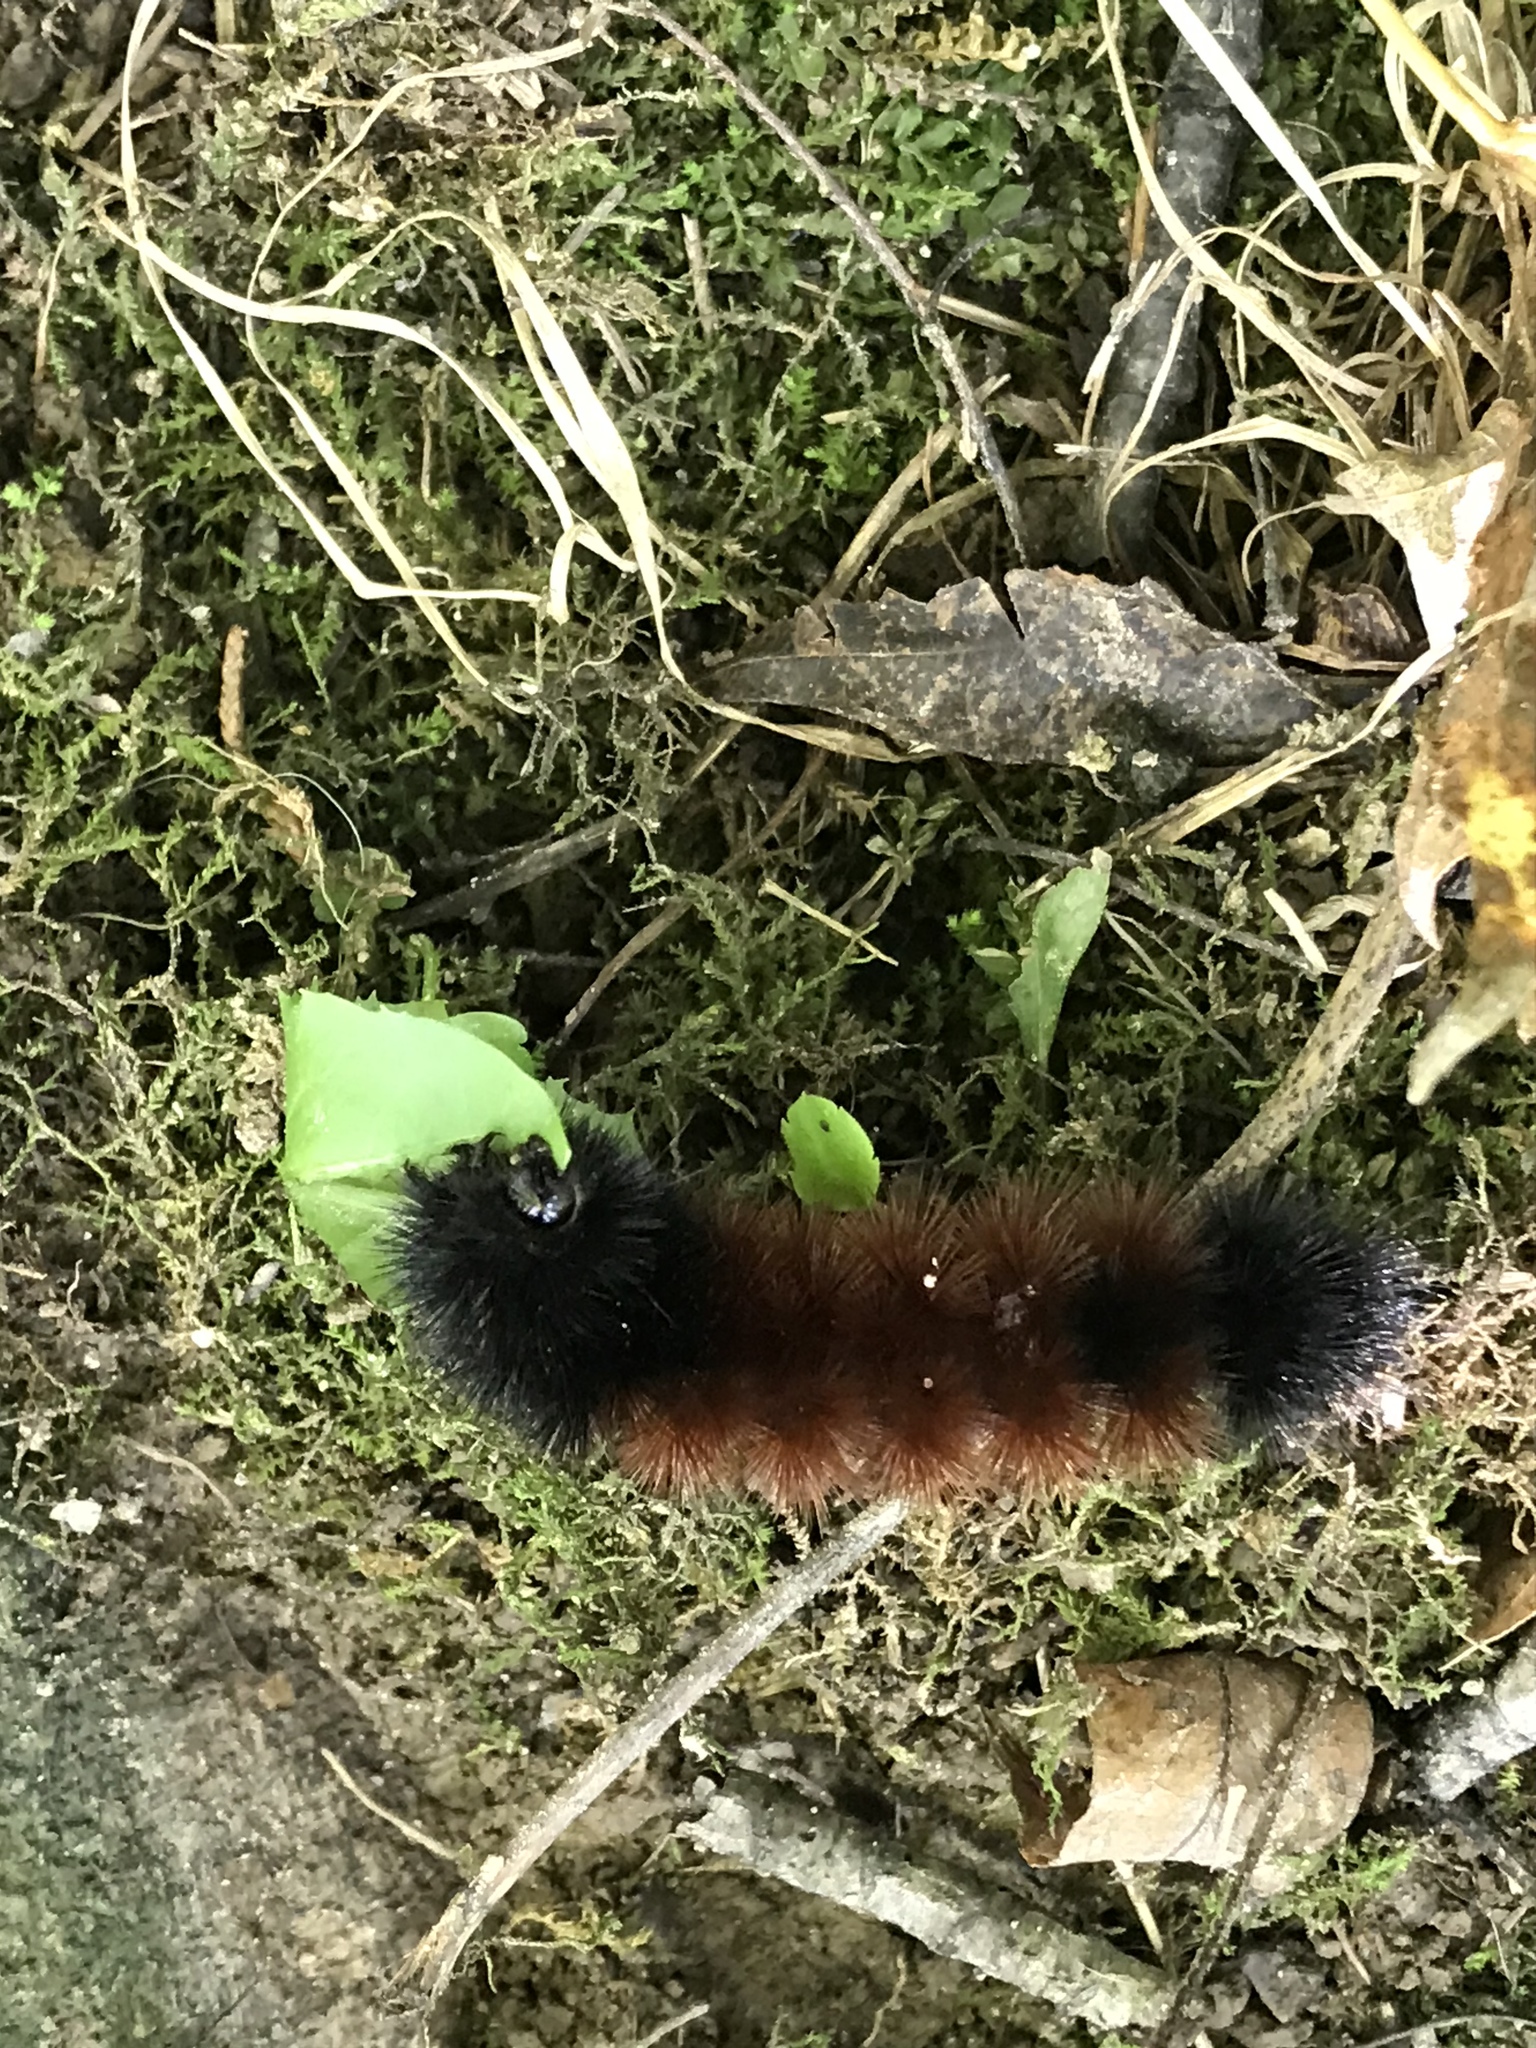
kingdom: Animalia
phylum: Arthropoda
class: Insecta
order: Lepidoptera
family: Erebidae
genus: Pyrrharctia
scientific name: Pyrrharctia isabella
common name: Isabella tiger moth
